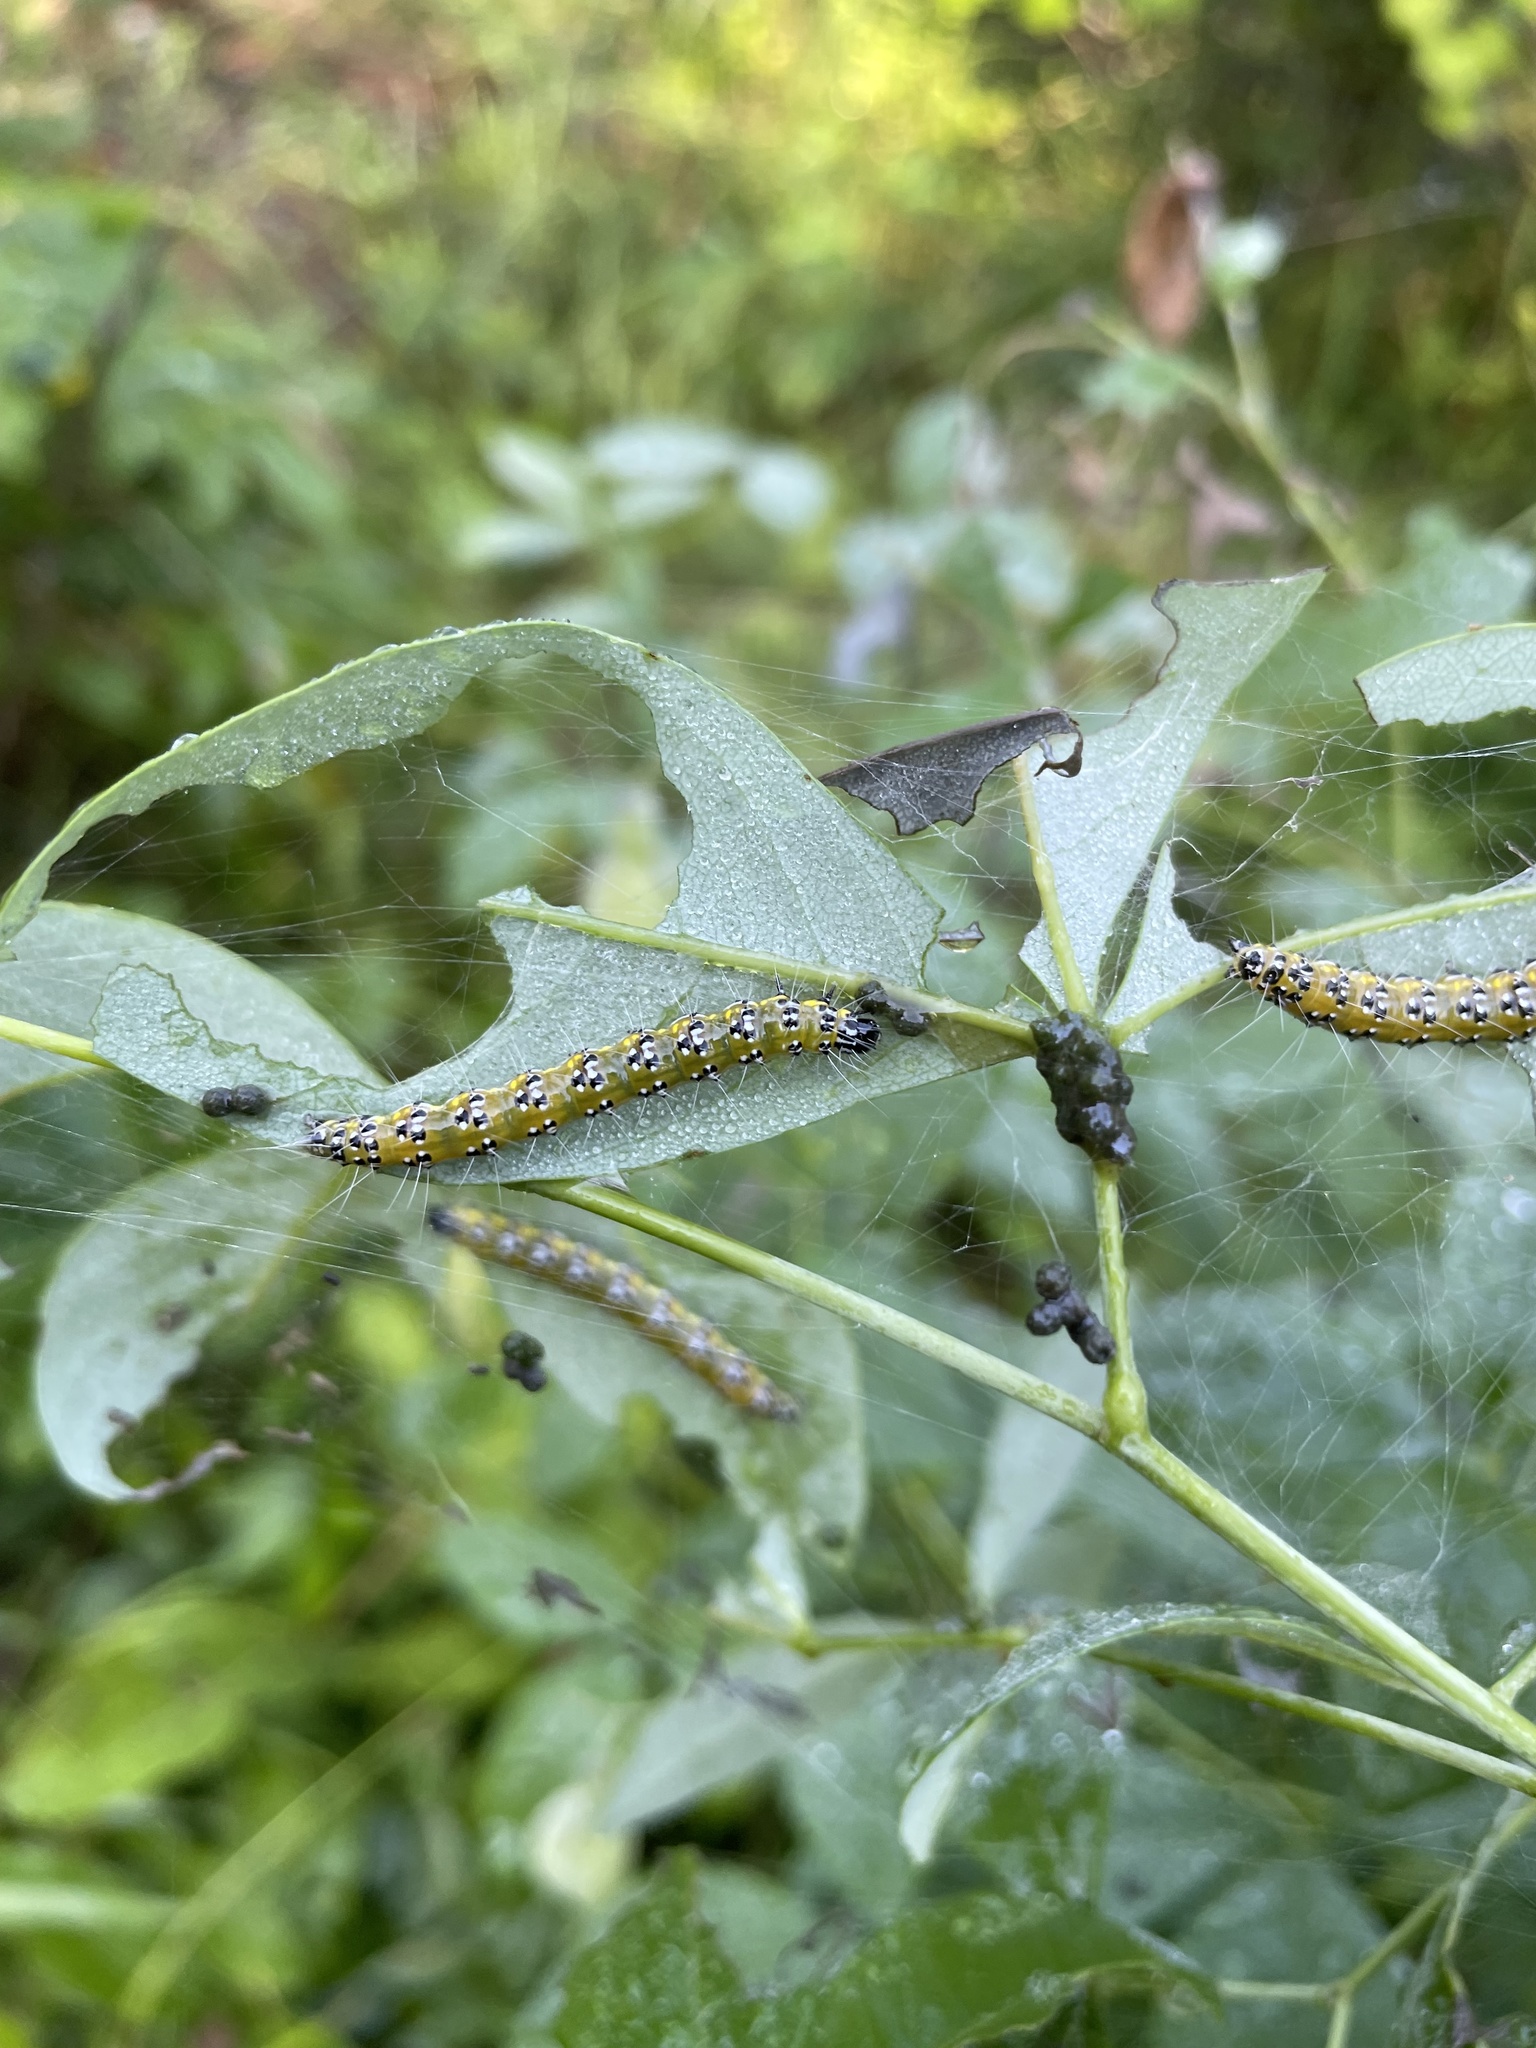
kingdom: Animalia
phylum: Arthropoda
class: Insecta
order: Lepidoptera
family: Crambidae
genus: Uresiphita
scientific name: Uresiphita reversalis
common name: Genista broom moth
